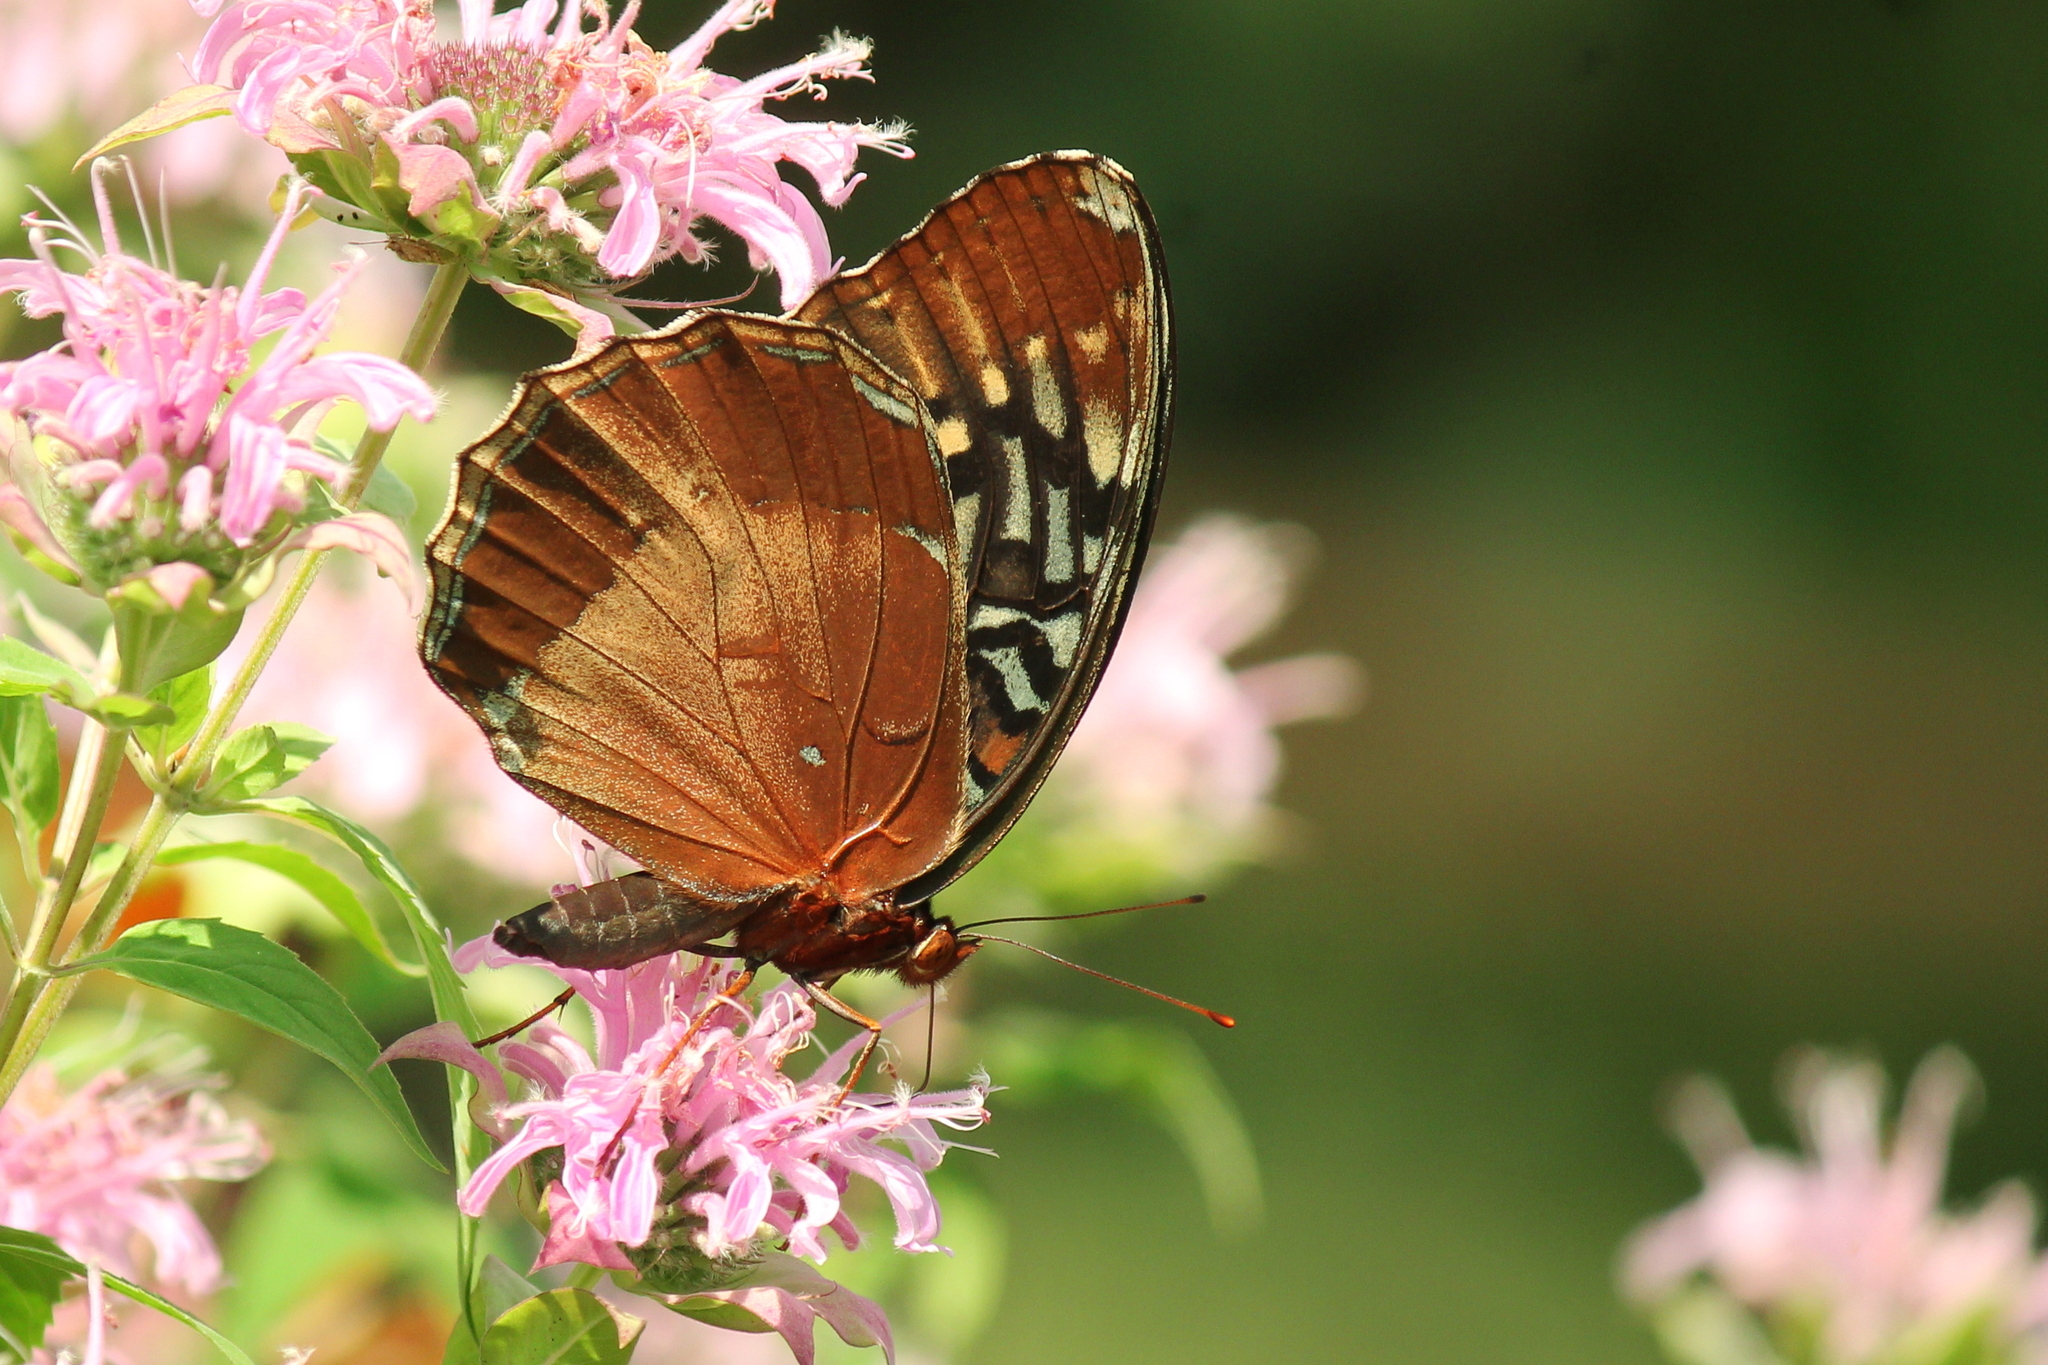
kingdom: Animalia
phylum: Arthropoda
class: Insecta
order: Lepidoptera
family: Nymphalidae
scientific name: Nymphalidae
